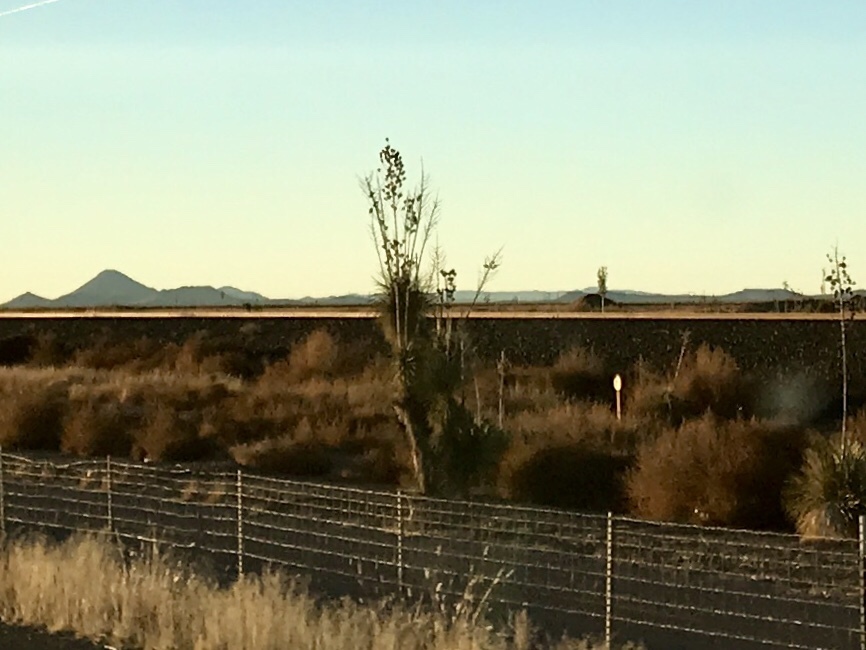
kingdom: Plantae
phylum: Tracheophyta
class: Liliopsida
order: Asparagales
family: Asparagaceae
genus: Yucca
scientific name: Yucca elata
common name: Palmella
